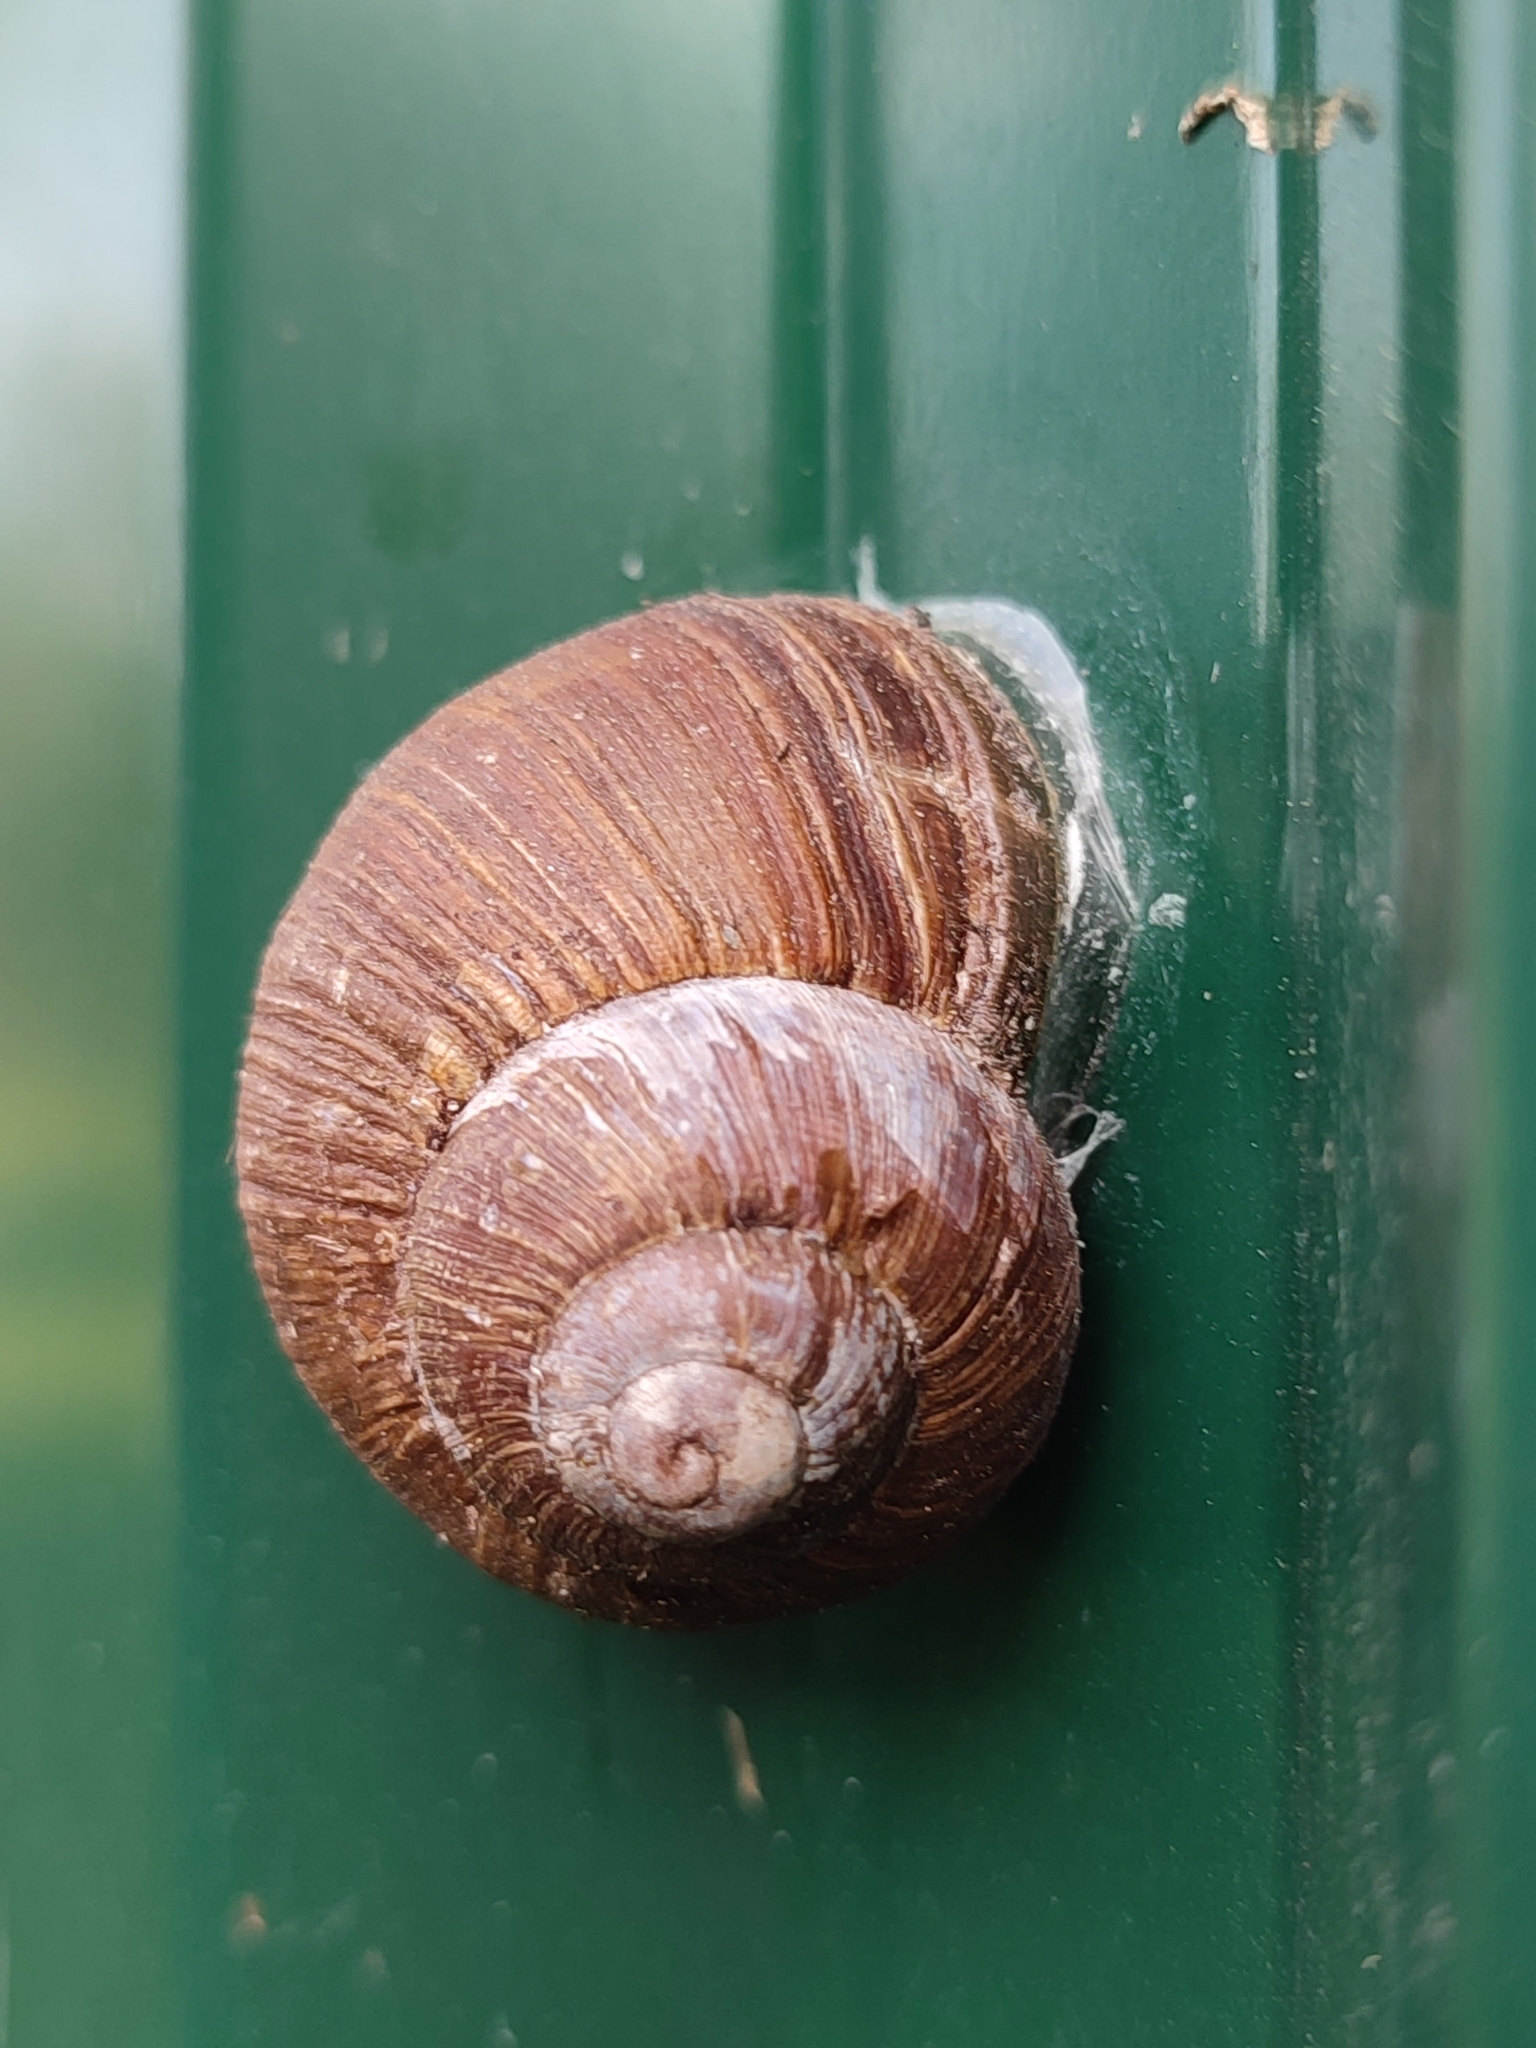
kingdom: Animalia
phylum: Mollusca
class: Gastropoda
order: Stylommatophora
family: Helicidae
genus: Helix
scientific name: Helix pomatia
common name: Roman snail
